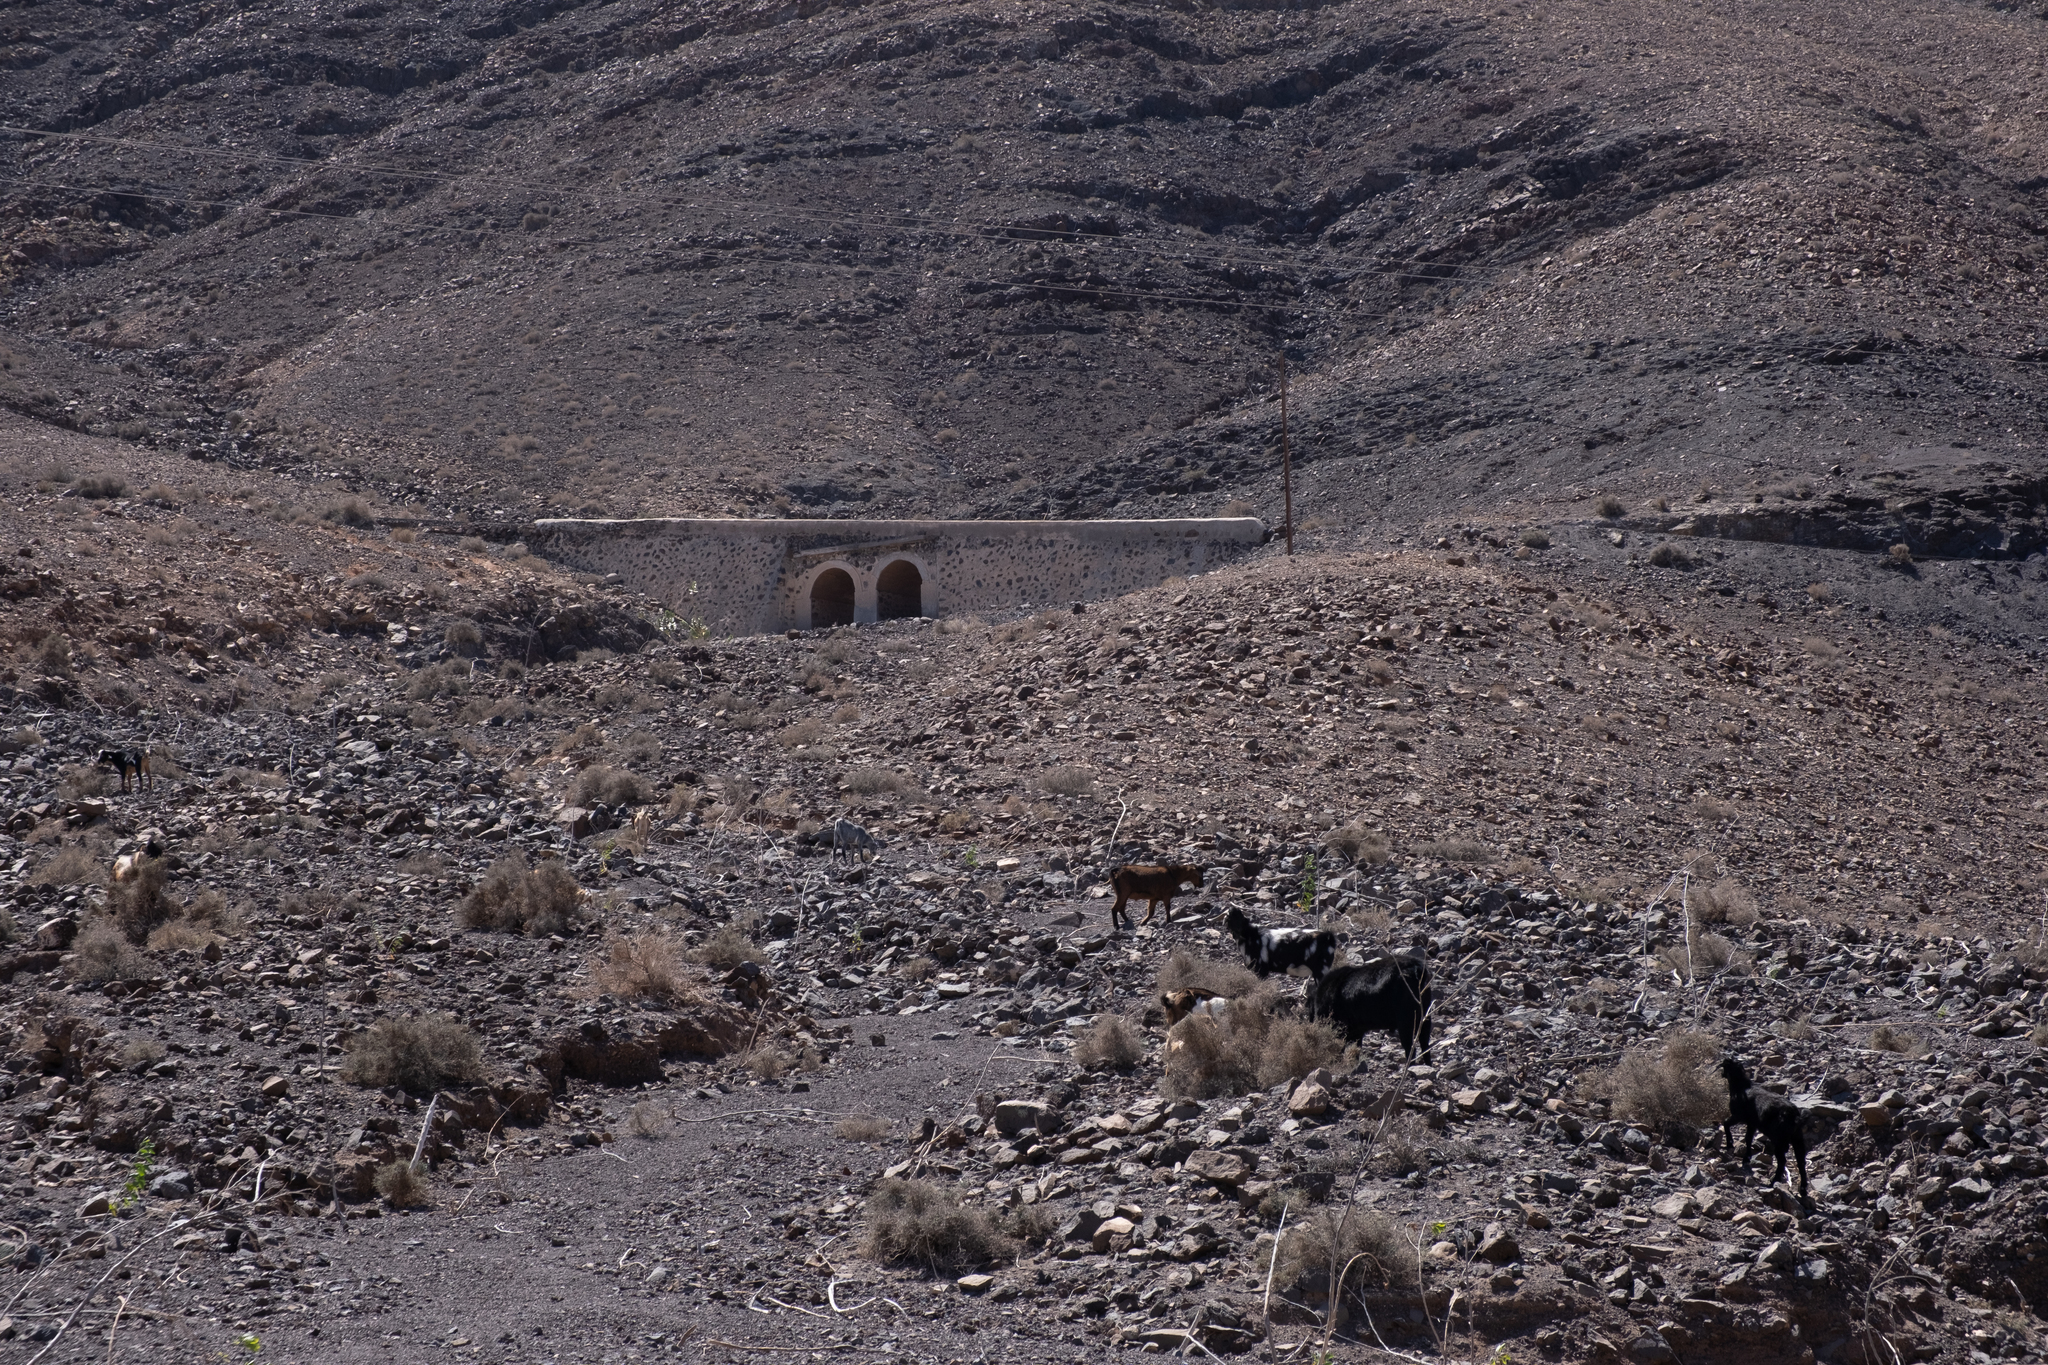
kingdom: Animalia
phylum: Chordata
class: Mammalia
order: Artiodactyla
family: Bovidae
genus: Capra
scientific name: Capra hircus
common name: Domestic goat
